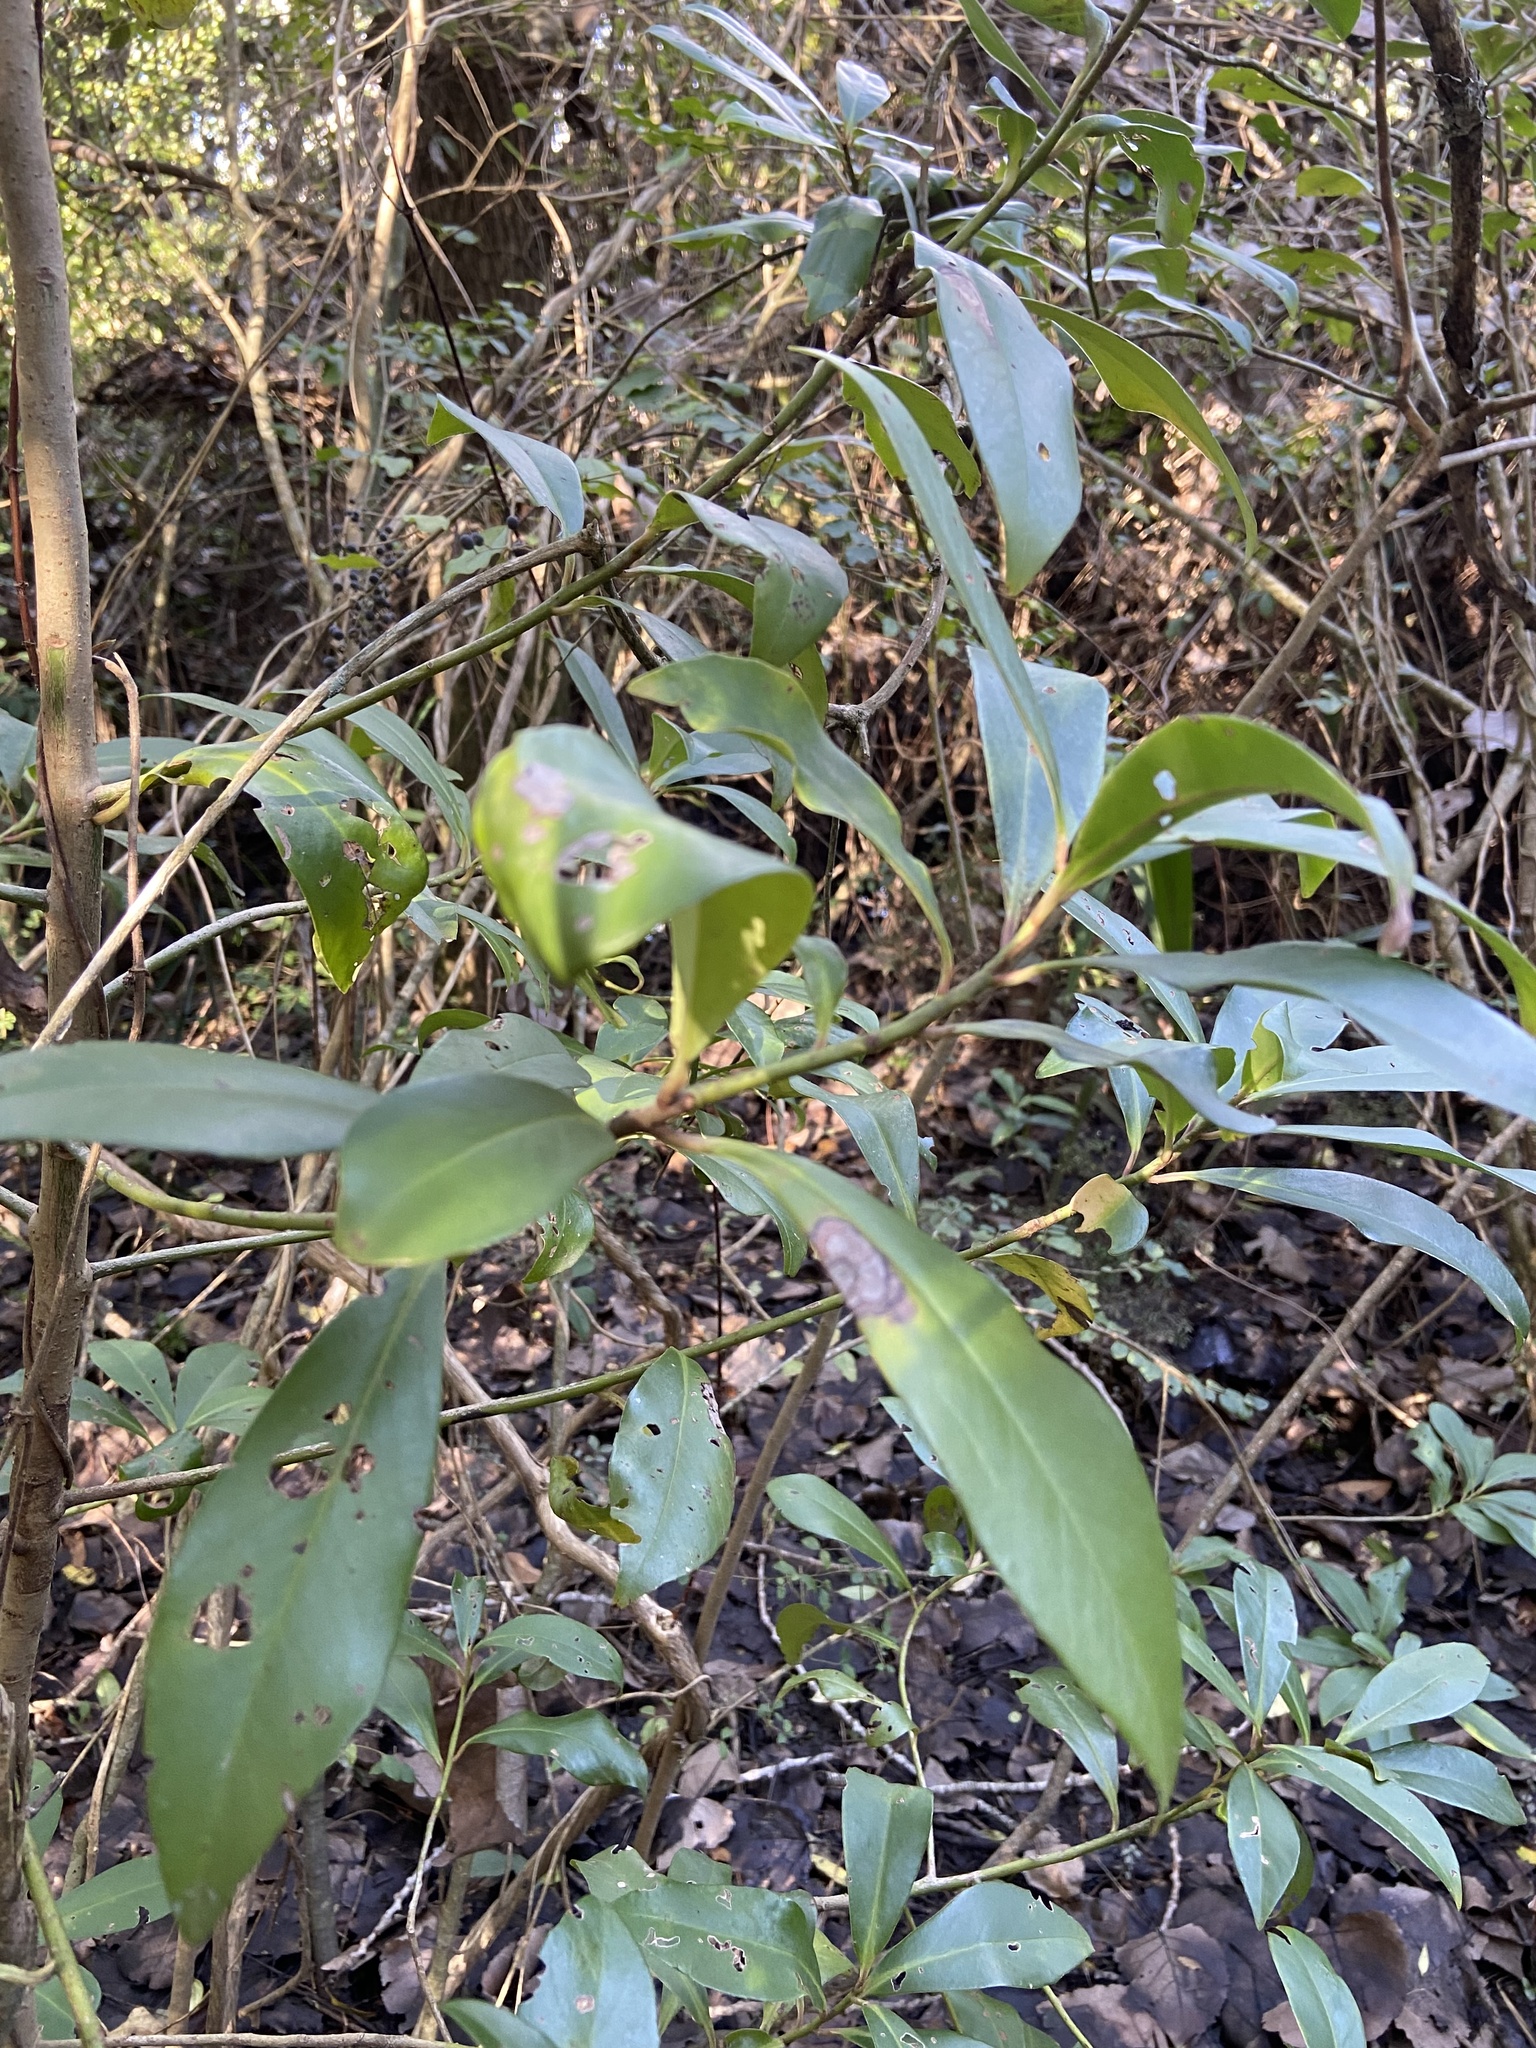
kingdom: Plantae
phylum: Tracheophyta
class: Magnoliopsida
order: Ericales
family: Primulaceae
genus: Myrsine
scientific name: Myrsine lorentziana
